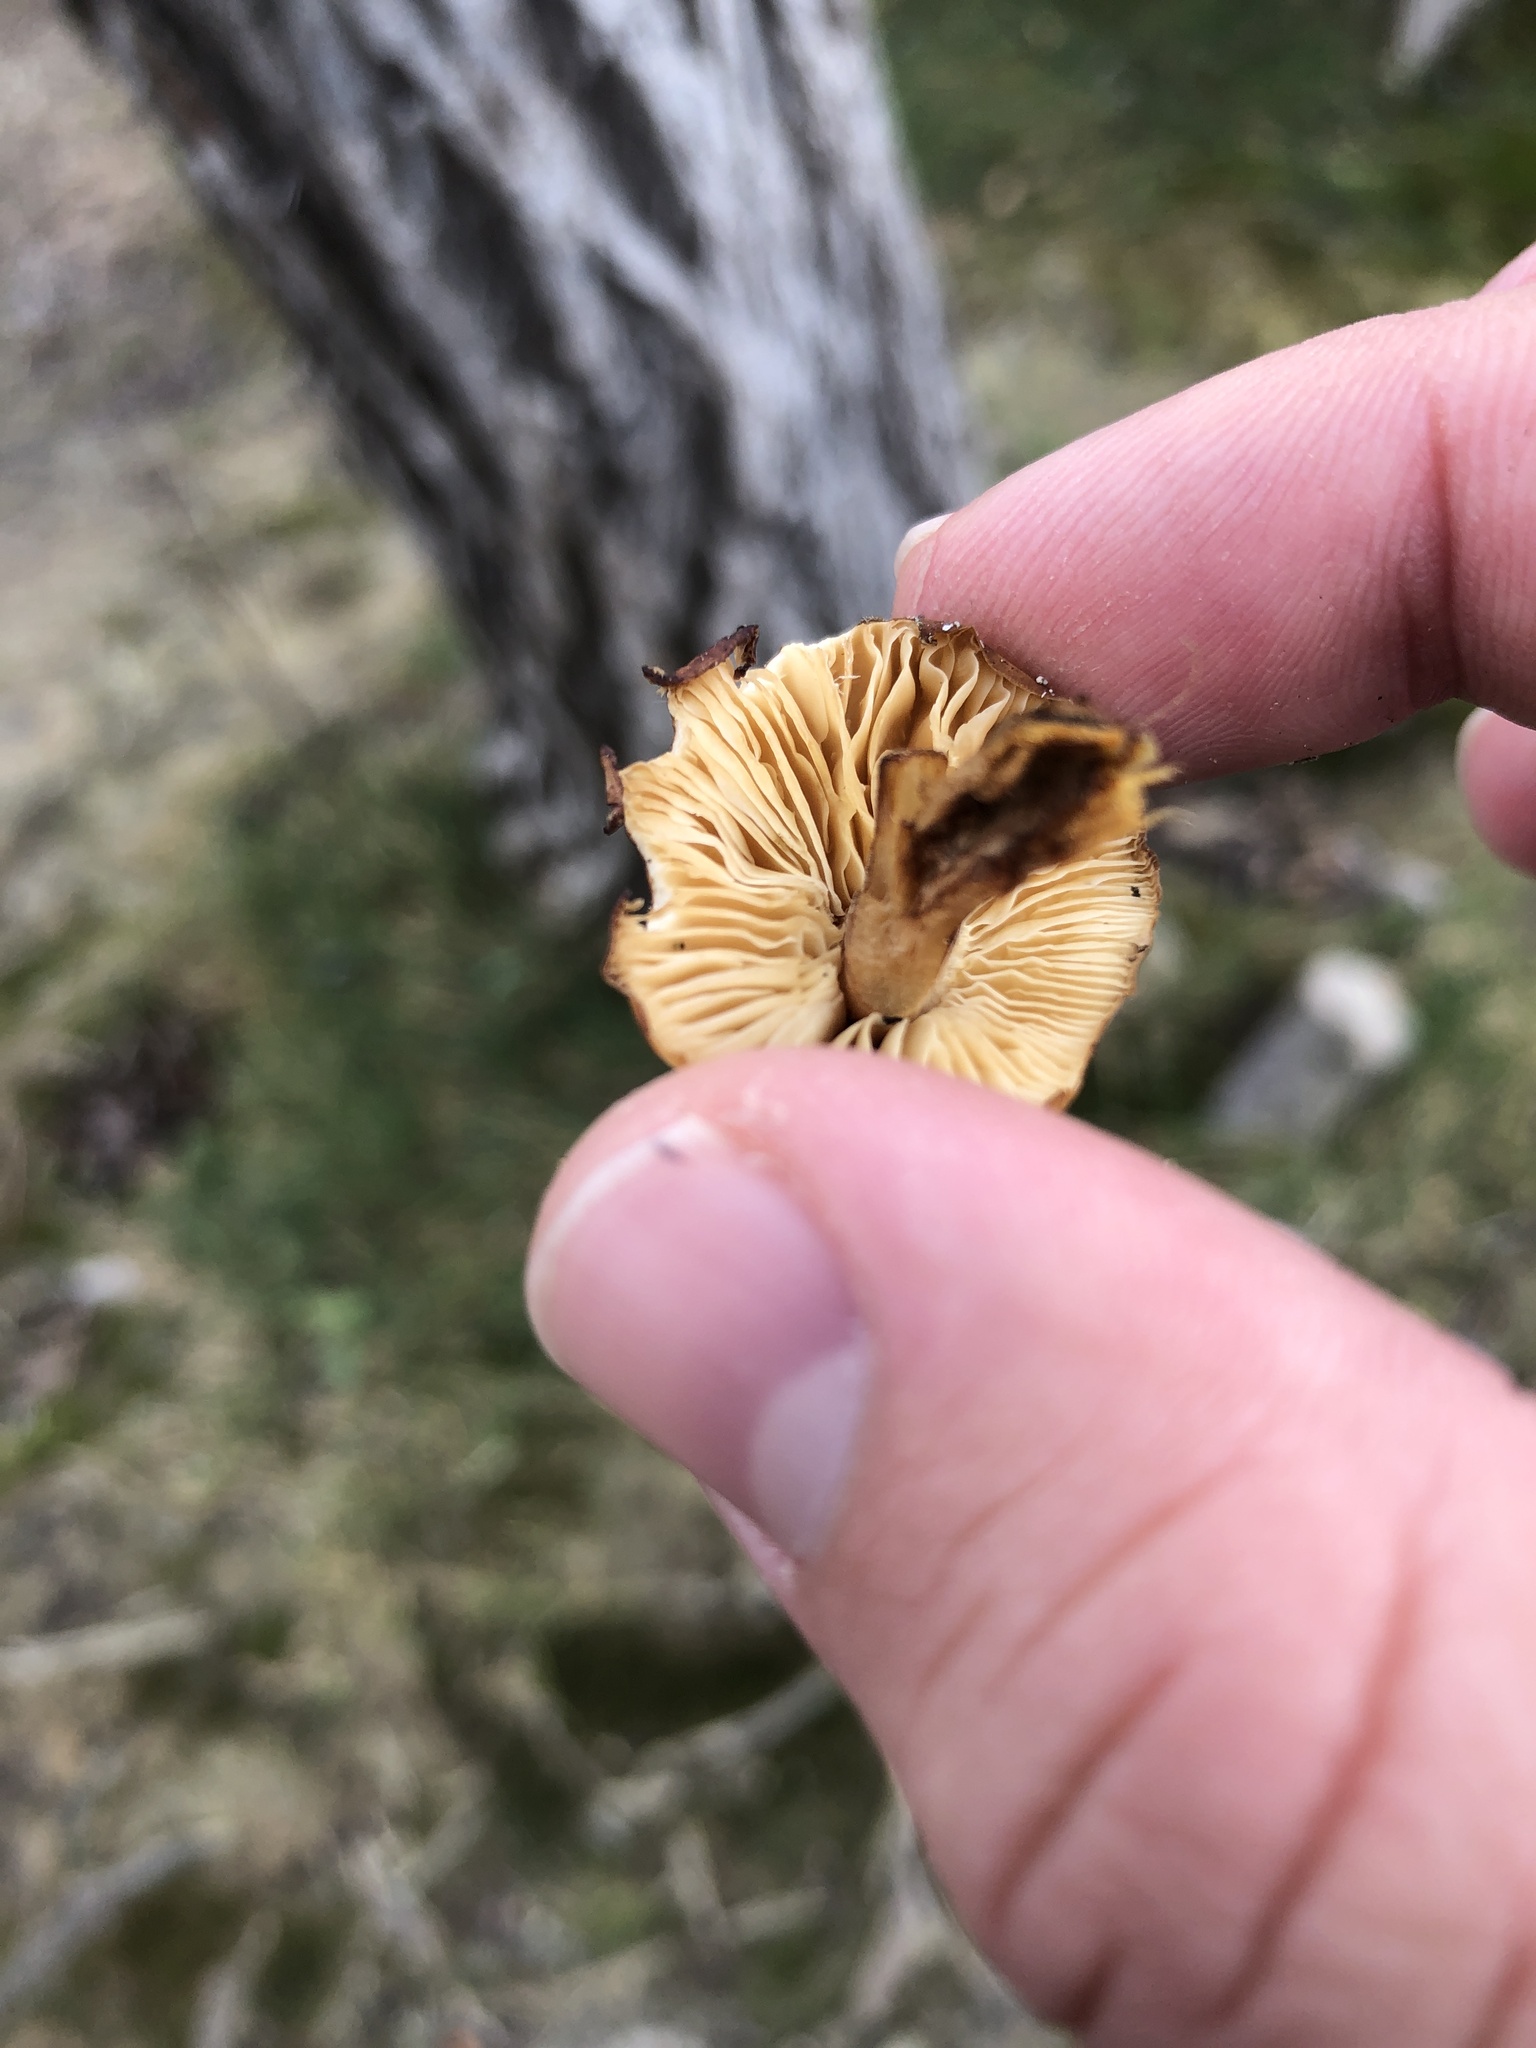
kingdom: Fungi
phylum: Basidiomycota
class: Agaricomycetes
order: Agaricales
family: Physalacriaceae
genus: Flammulina
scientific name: Flammulina velutipes
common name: Velvet shank
